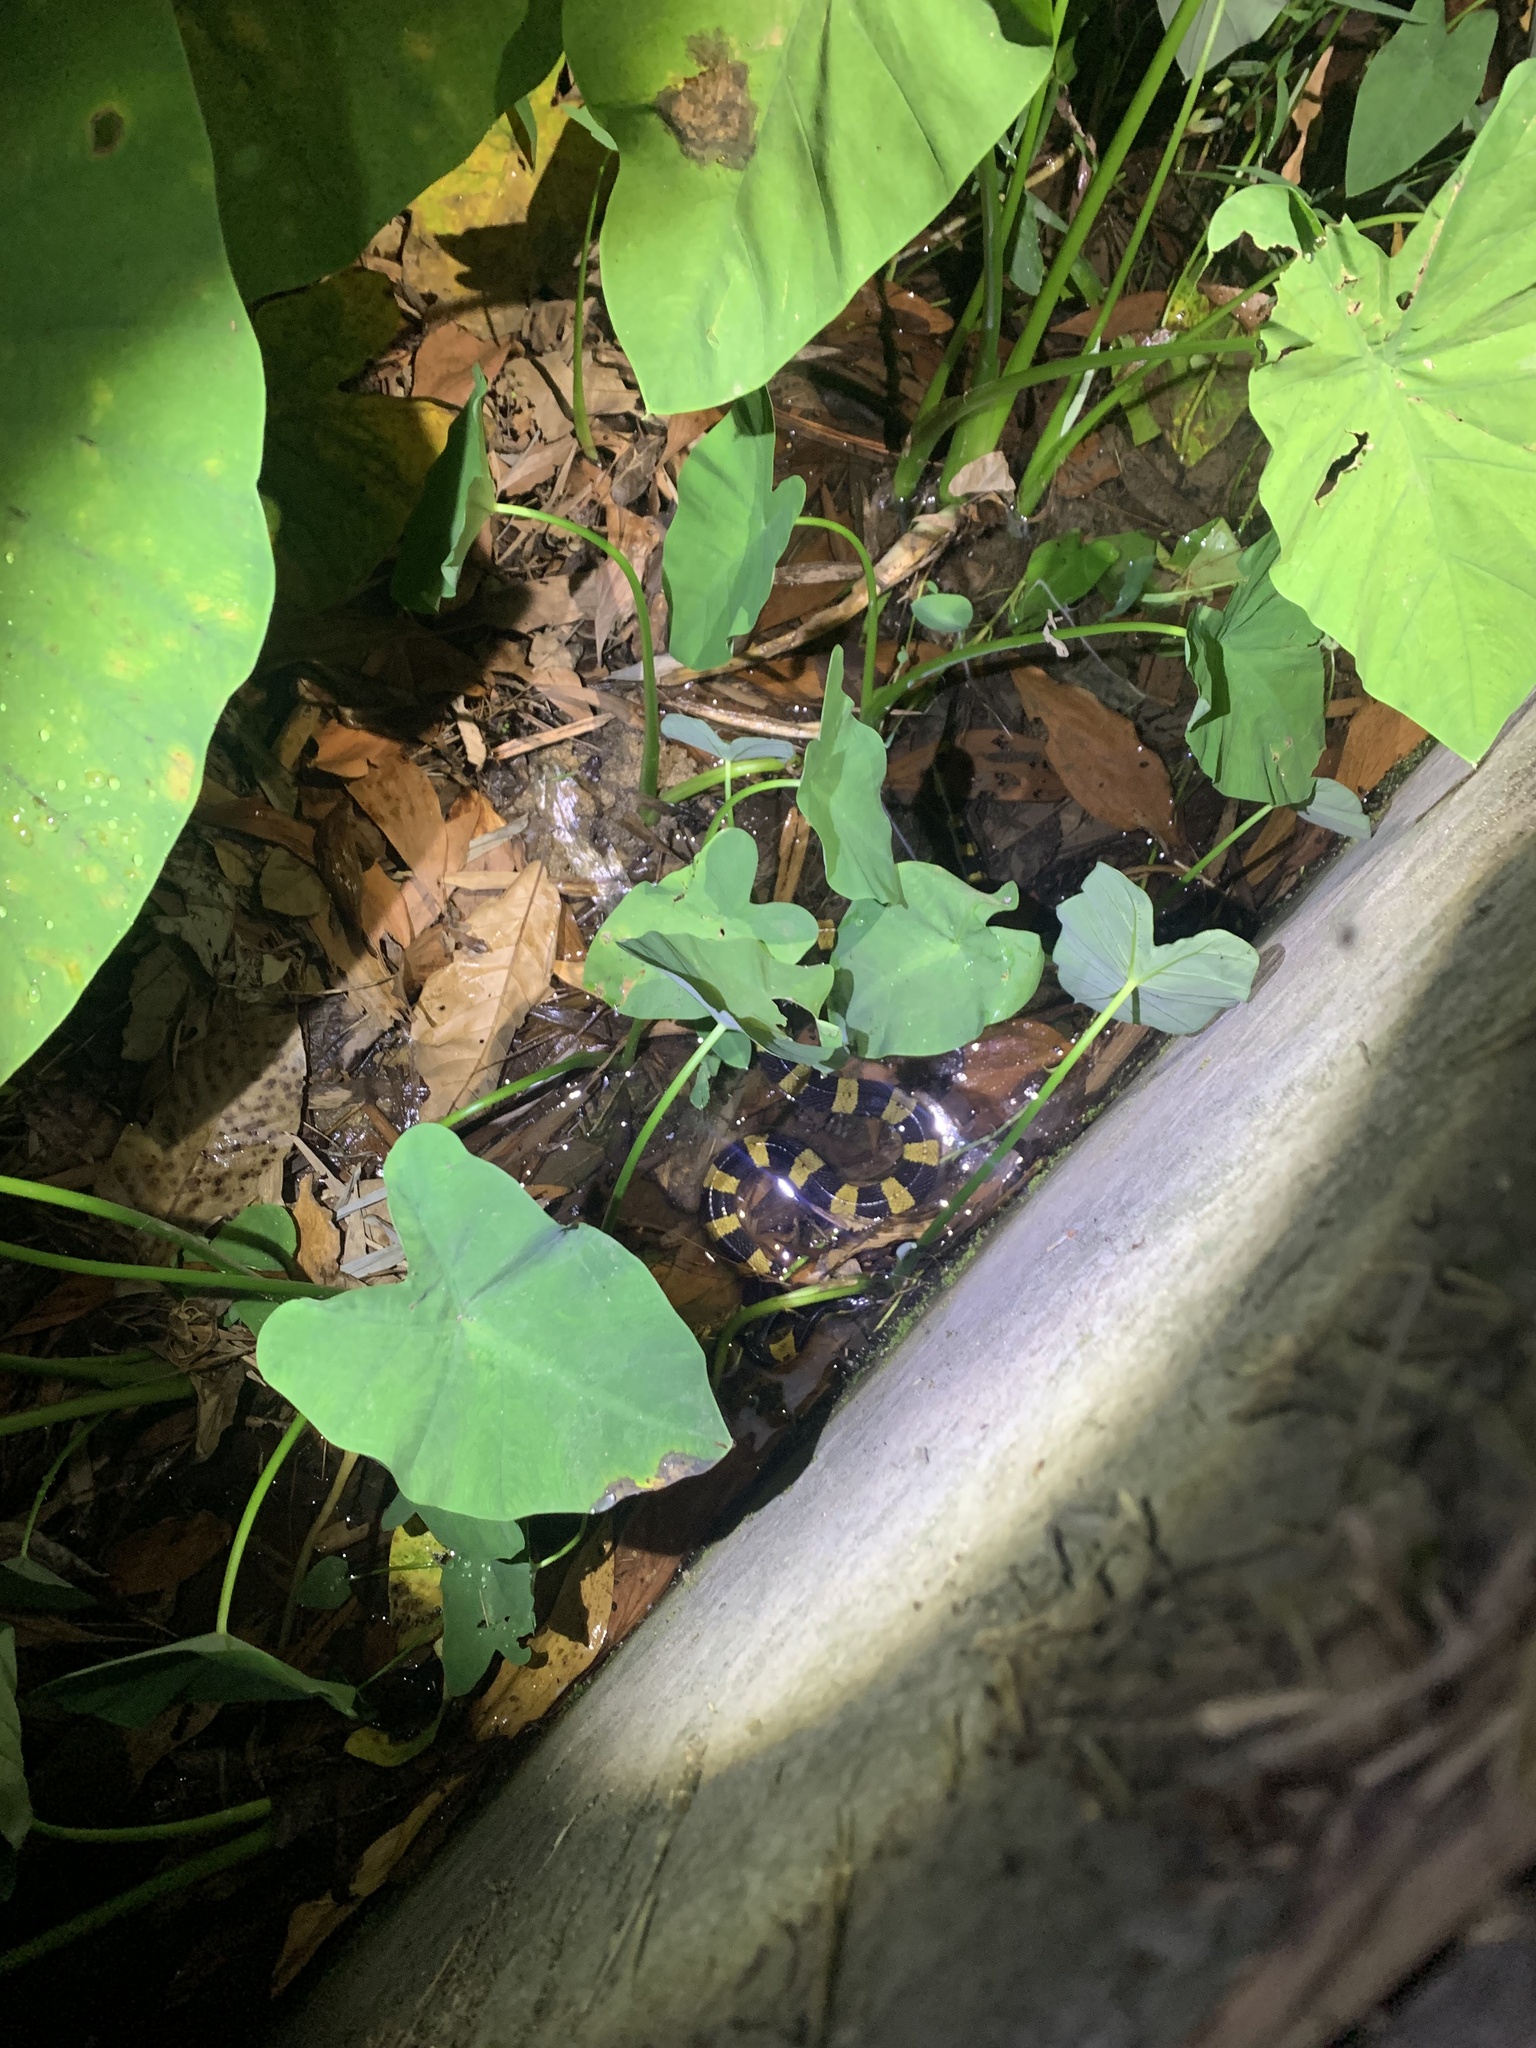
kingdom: Animalia
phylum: Chordata
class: Squamata
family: Elapidae
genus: Bungarus
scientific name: Bungarus fasciatus
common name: Banded krait
